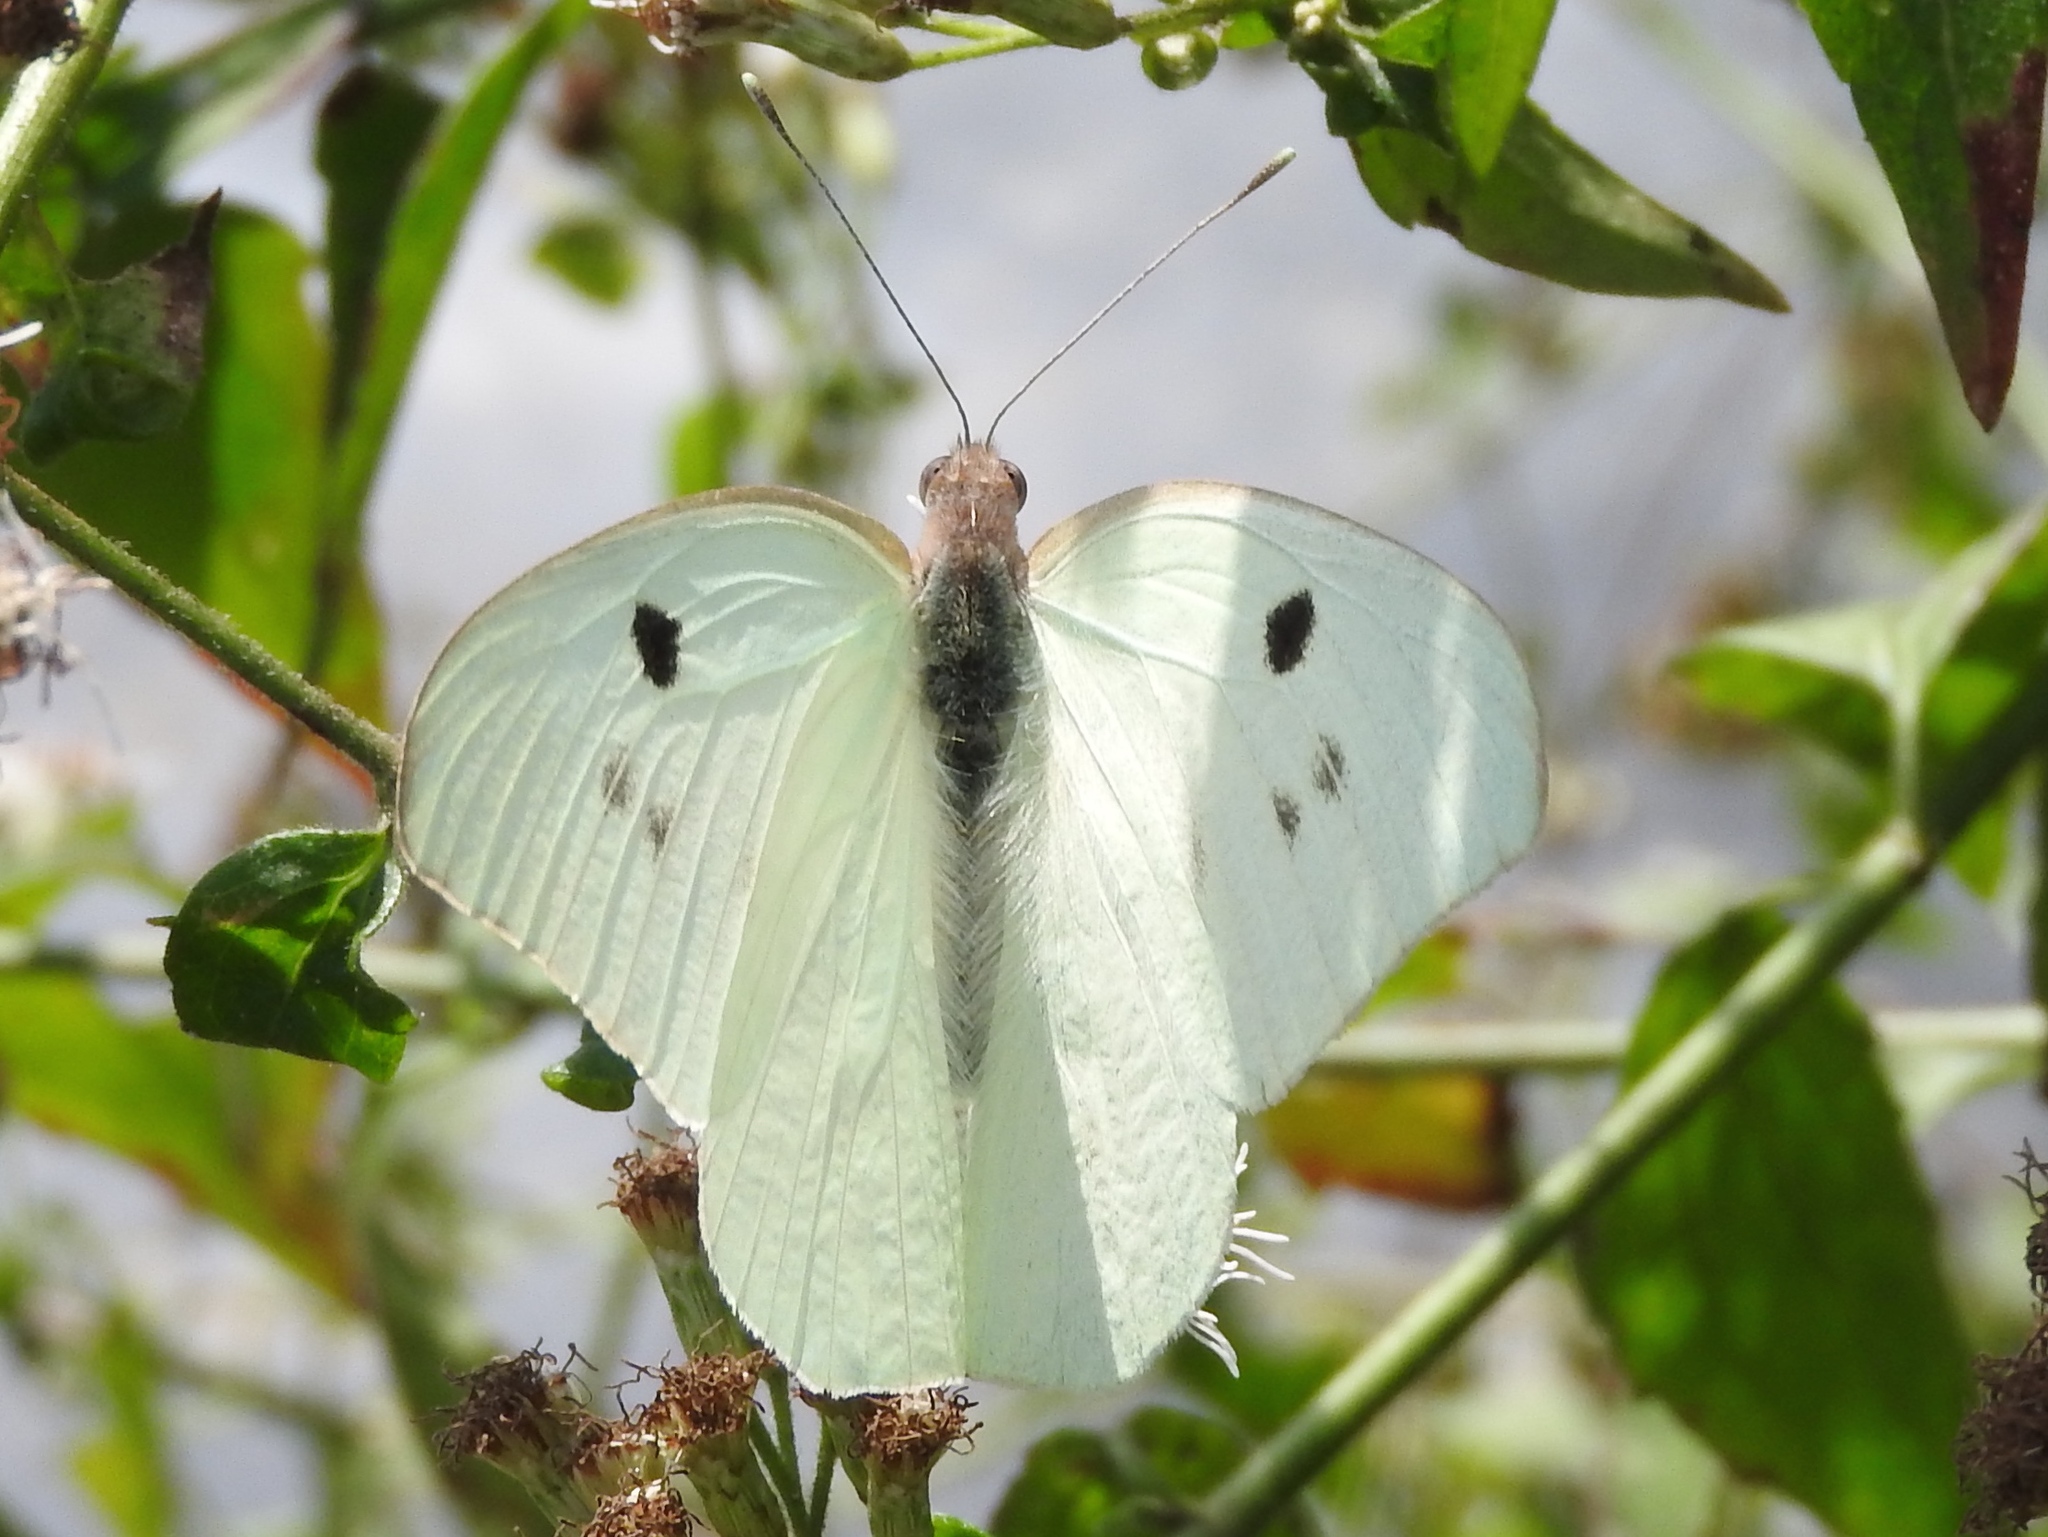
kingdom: Animalia
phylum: Arthropoda
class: Insecta
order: Lepidoptera
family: Pieridae
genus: Ganyra
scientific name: Ganyra josephina
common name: Giant white
